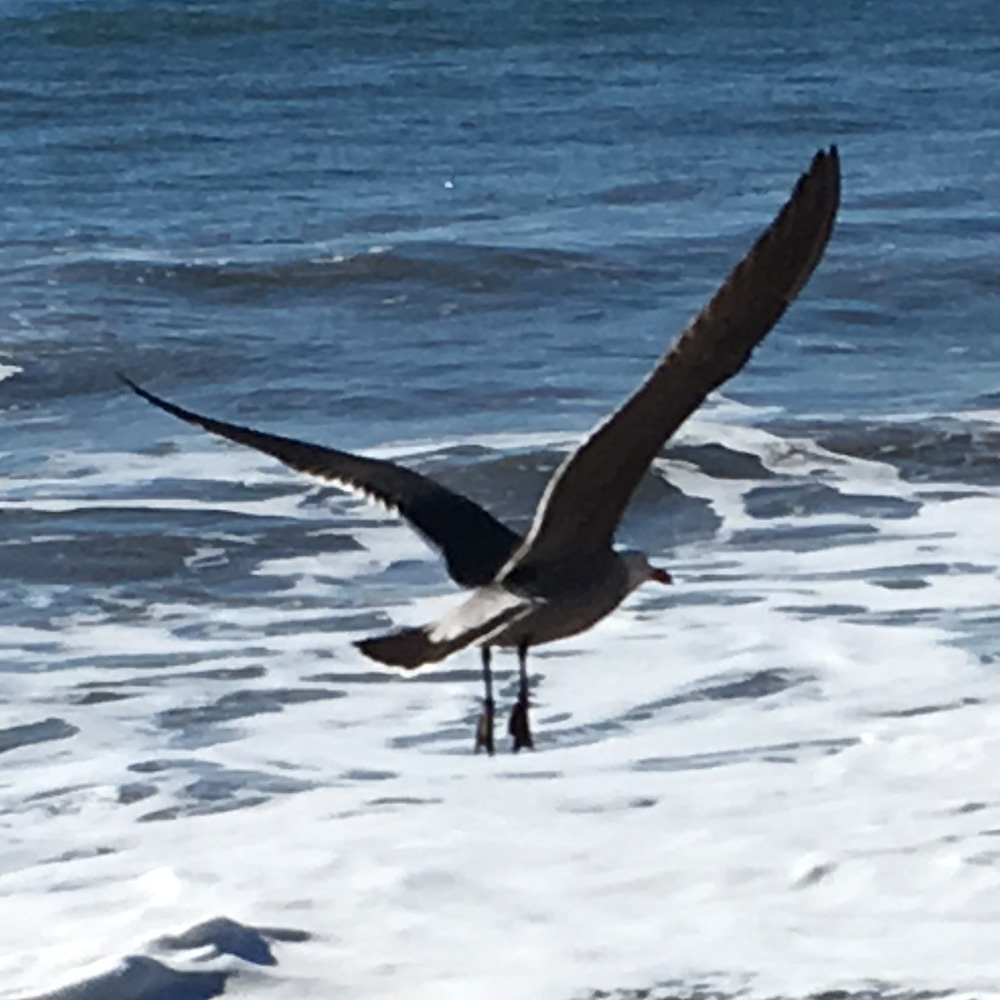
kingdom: Animalia
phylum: Chordata
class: Aves
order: Charadriiformes
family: Laridae
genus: Larus
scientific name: Larus heermanni
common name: Heermann's gull
